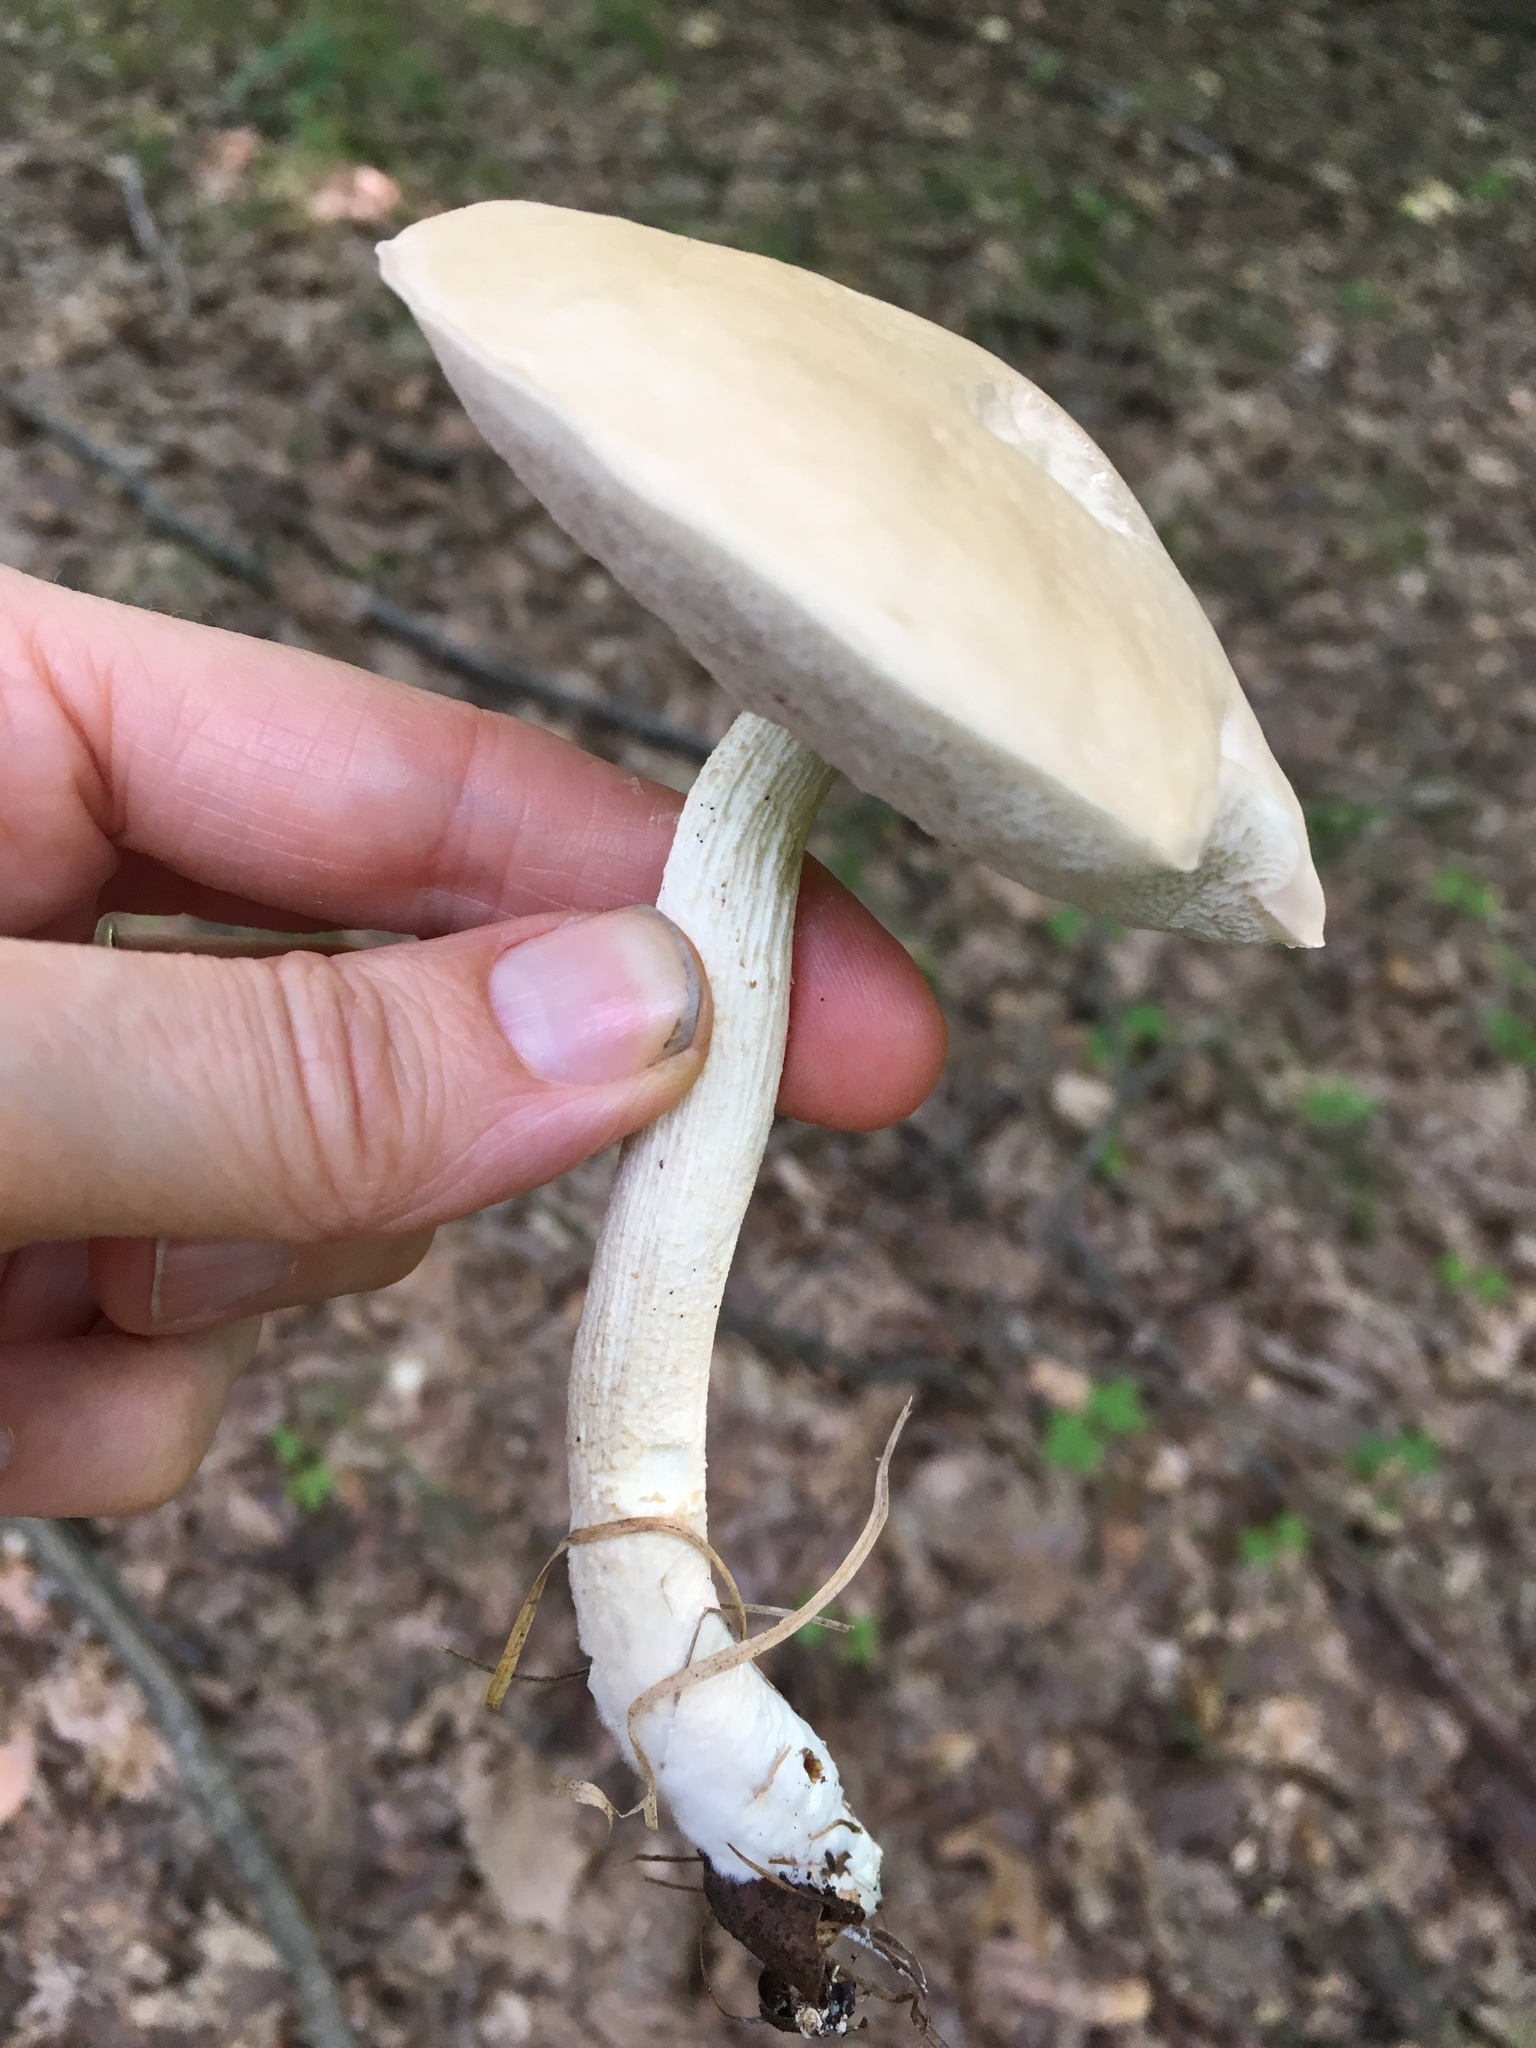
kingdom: Fungi
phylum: Basidiomycota
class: Agaricomycetes
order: Boletales
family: Boletaceae
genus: Leccinellum
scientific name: Leccinellum albellum
